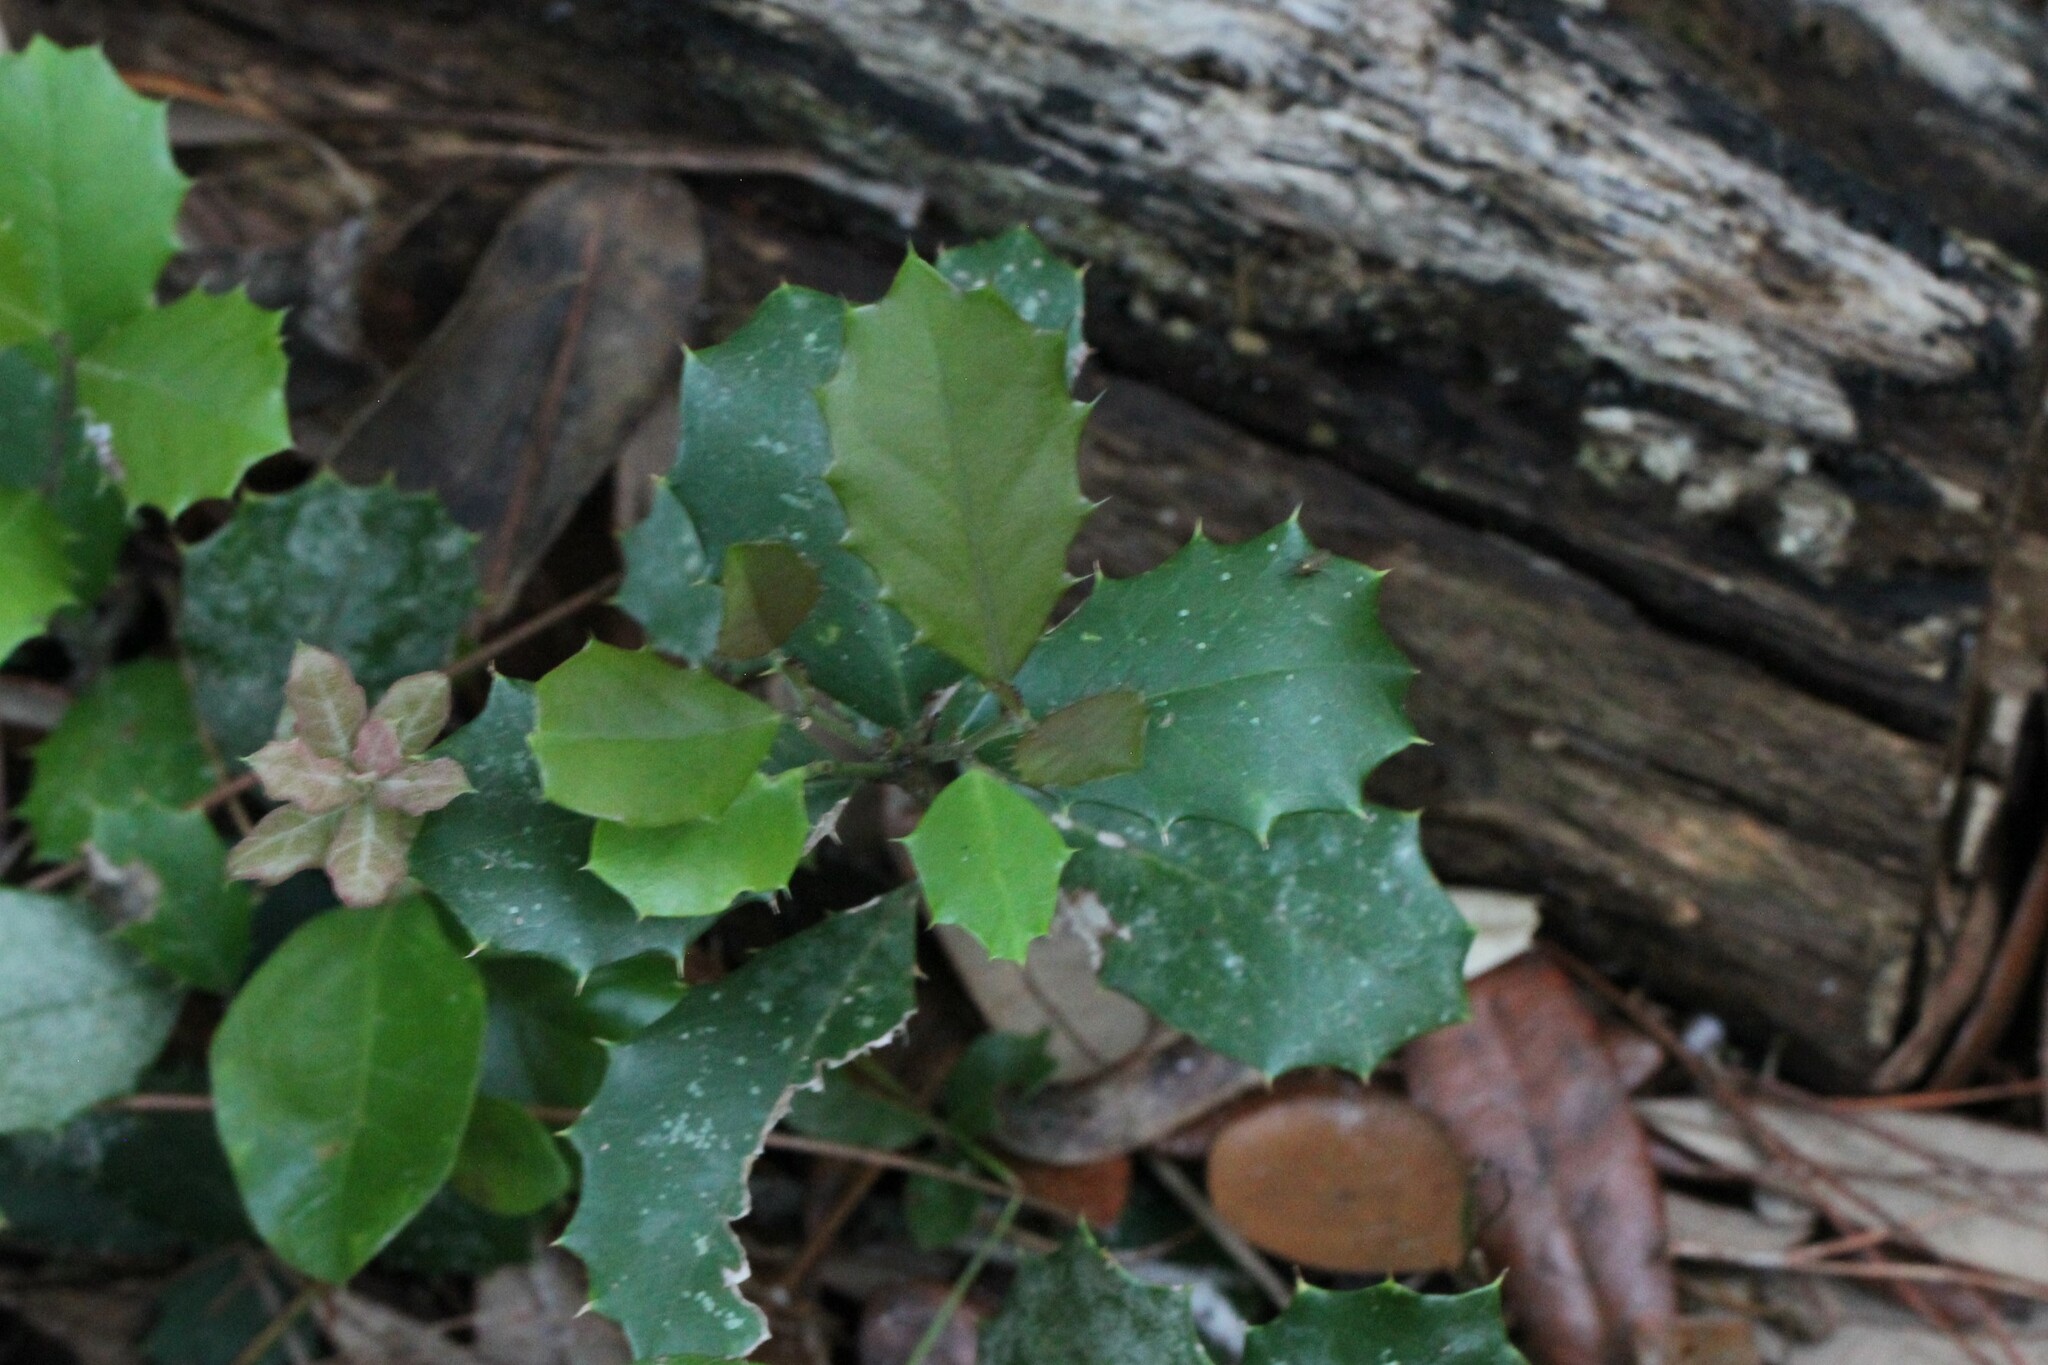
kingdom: Plantae
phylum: Tracheophyta
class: Magnoliopsida
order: Aquifoliales
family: Aquifoliaceae
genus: Ilex
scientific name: Ilex opaca
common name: American holly
